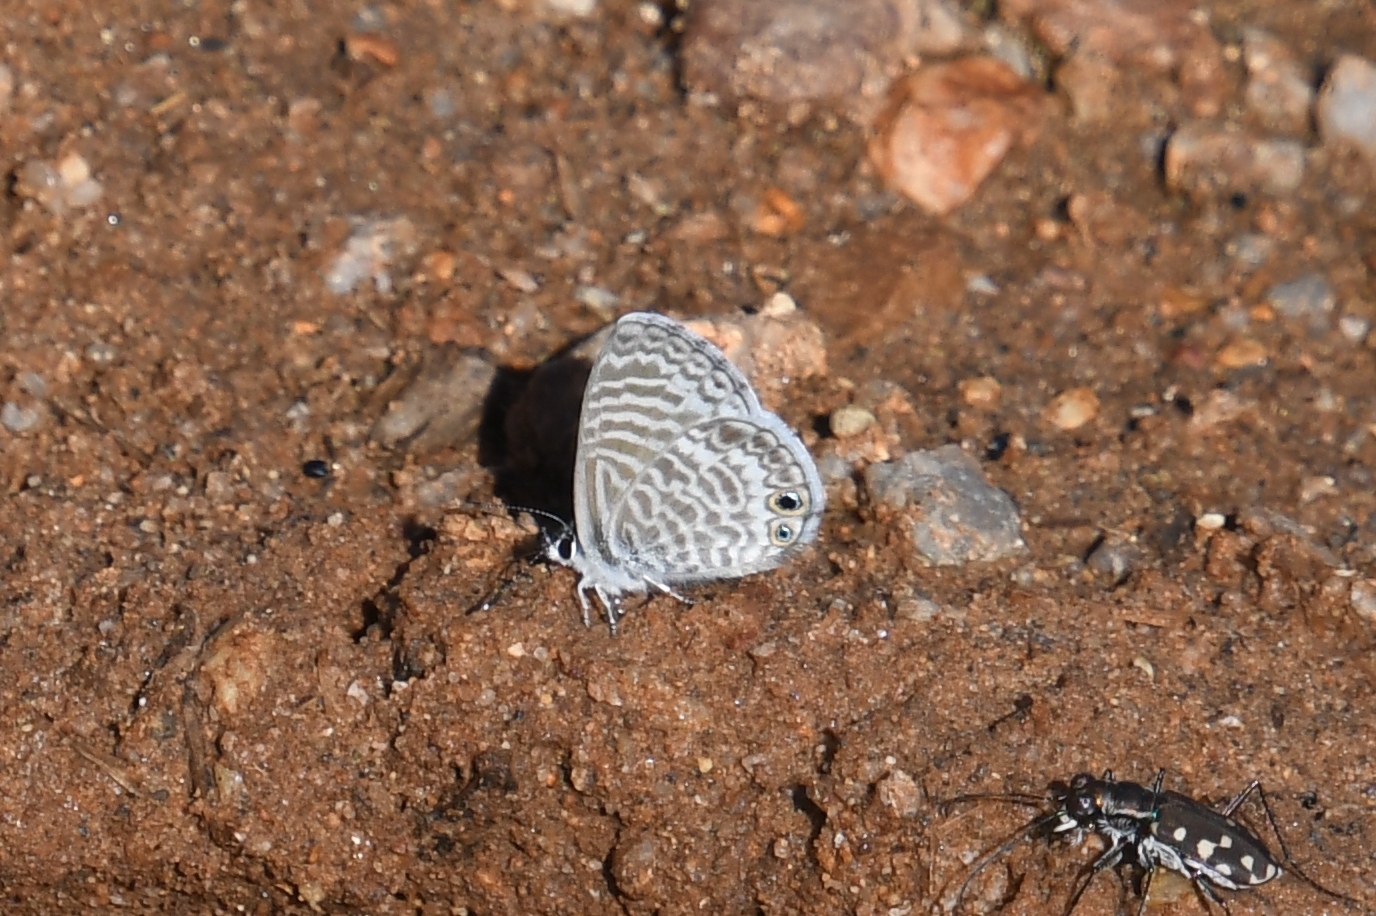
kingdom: Animalia
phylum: Arthropoda
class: Insecta
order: Lepidoptera
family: Lycaenidae
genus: Leptotes
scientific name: Leptotes marina
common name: Marine blue
